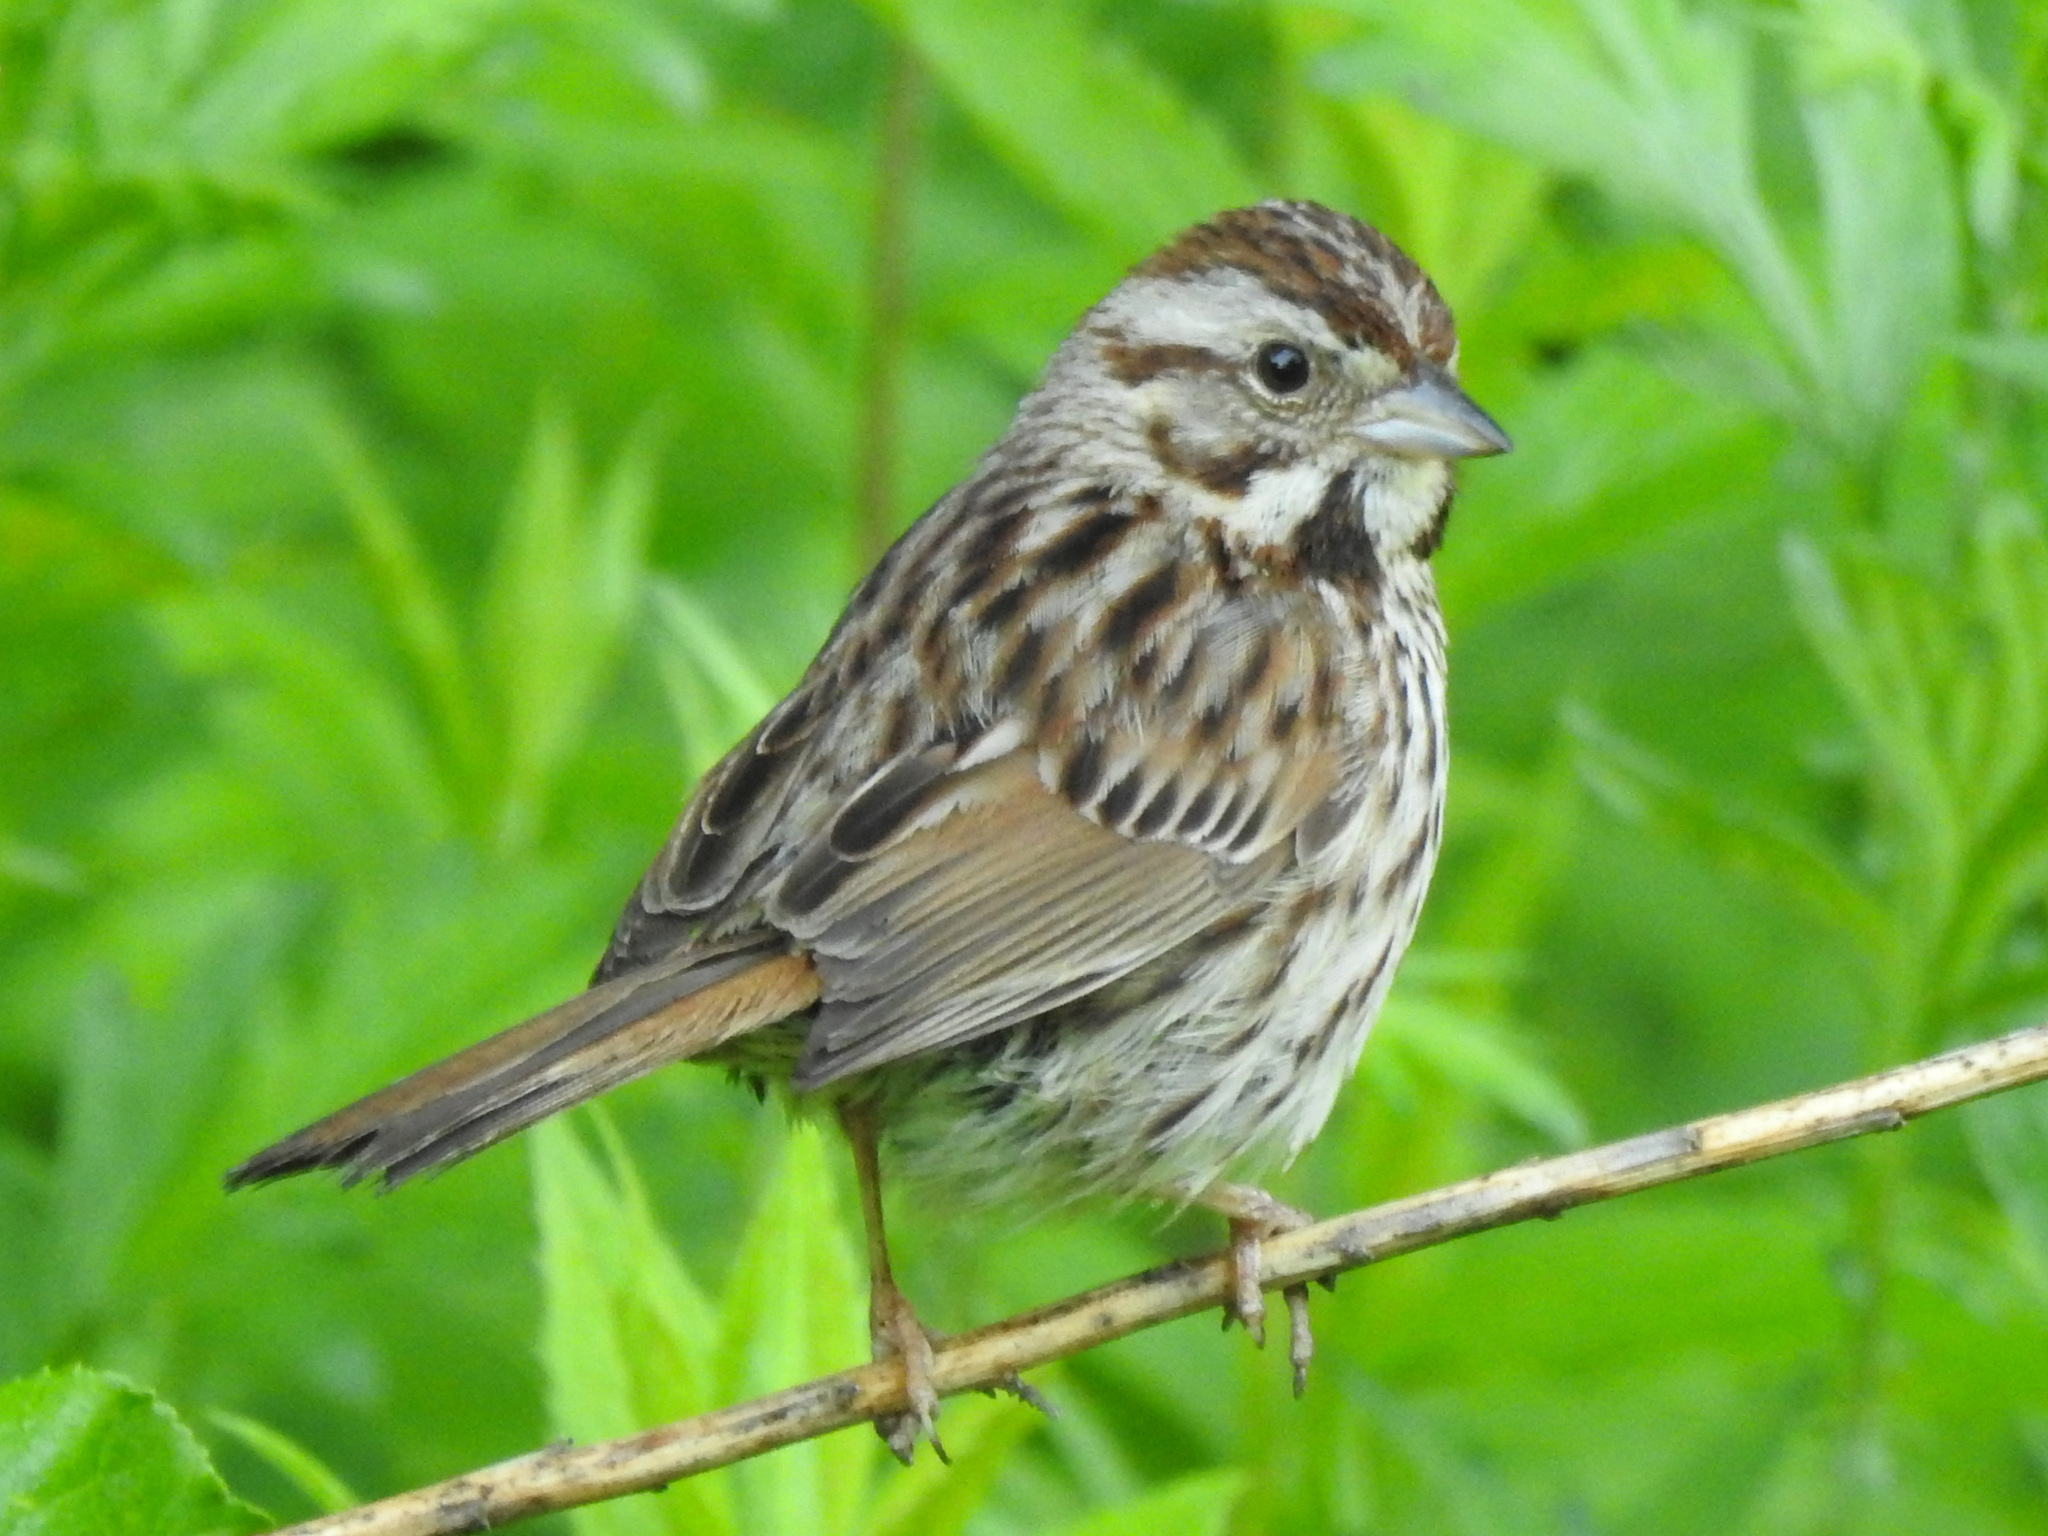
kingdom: Animalia
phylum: Chordata
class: Aves
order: Passeriformes
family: Passerellidae
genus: Melospiza
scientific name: Melospiza melodia
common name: Song sparrow
